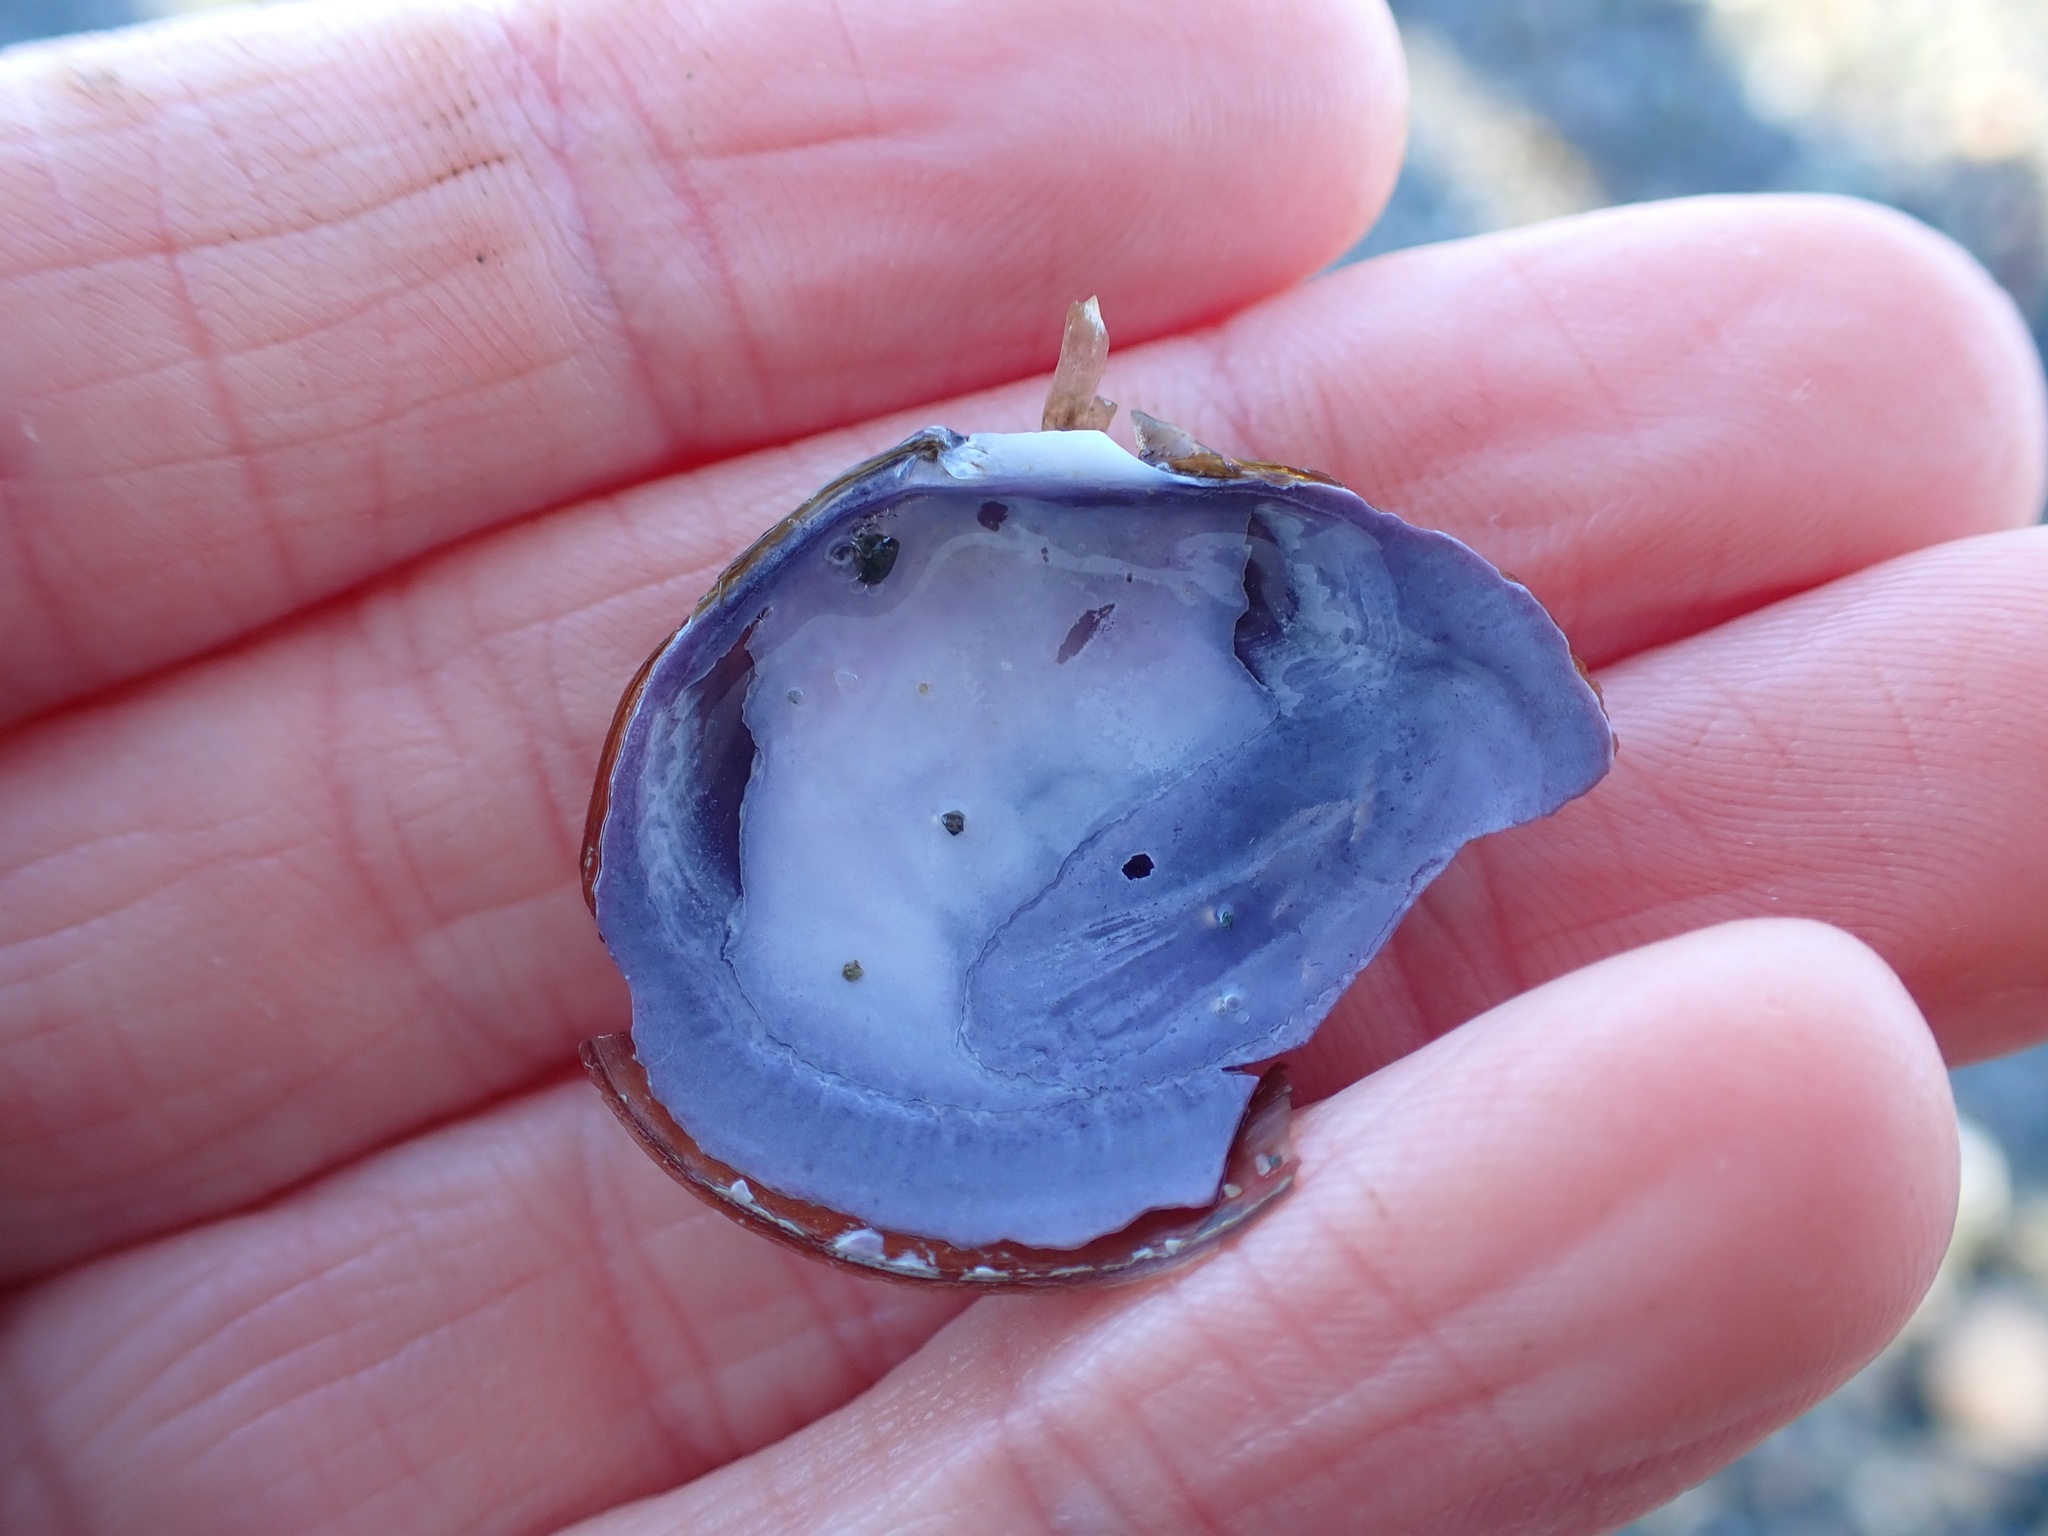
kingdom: Animalia
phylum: Mollusca
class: Bivalvia
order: Cardiida
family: Psammobiidae
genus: Nuttallia
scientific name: Nuttallia obscurata
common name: Purple mahogany-clam
